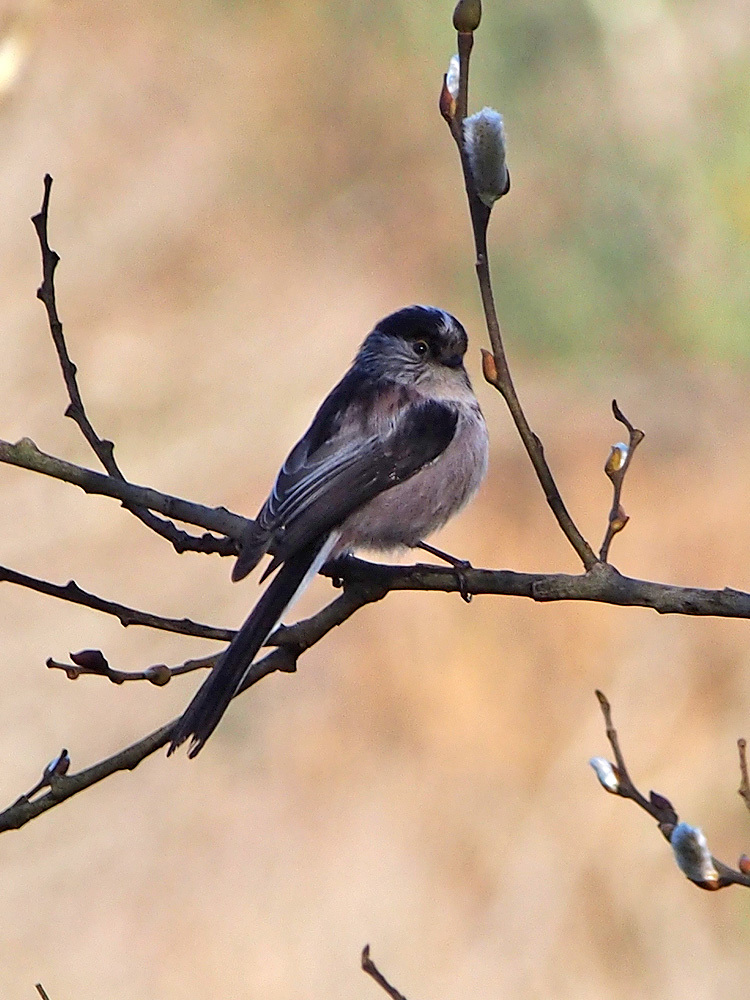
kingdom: Animalia
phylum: Chordata
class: Aves
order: Passeriformes
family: Aegithalidae
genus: Aegithalos
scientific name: Aegithalos caudatus
